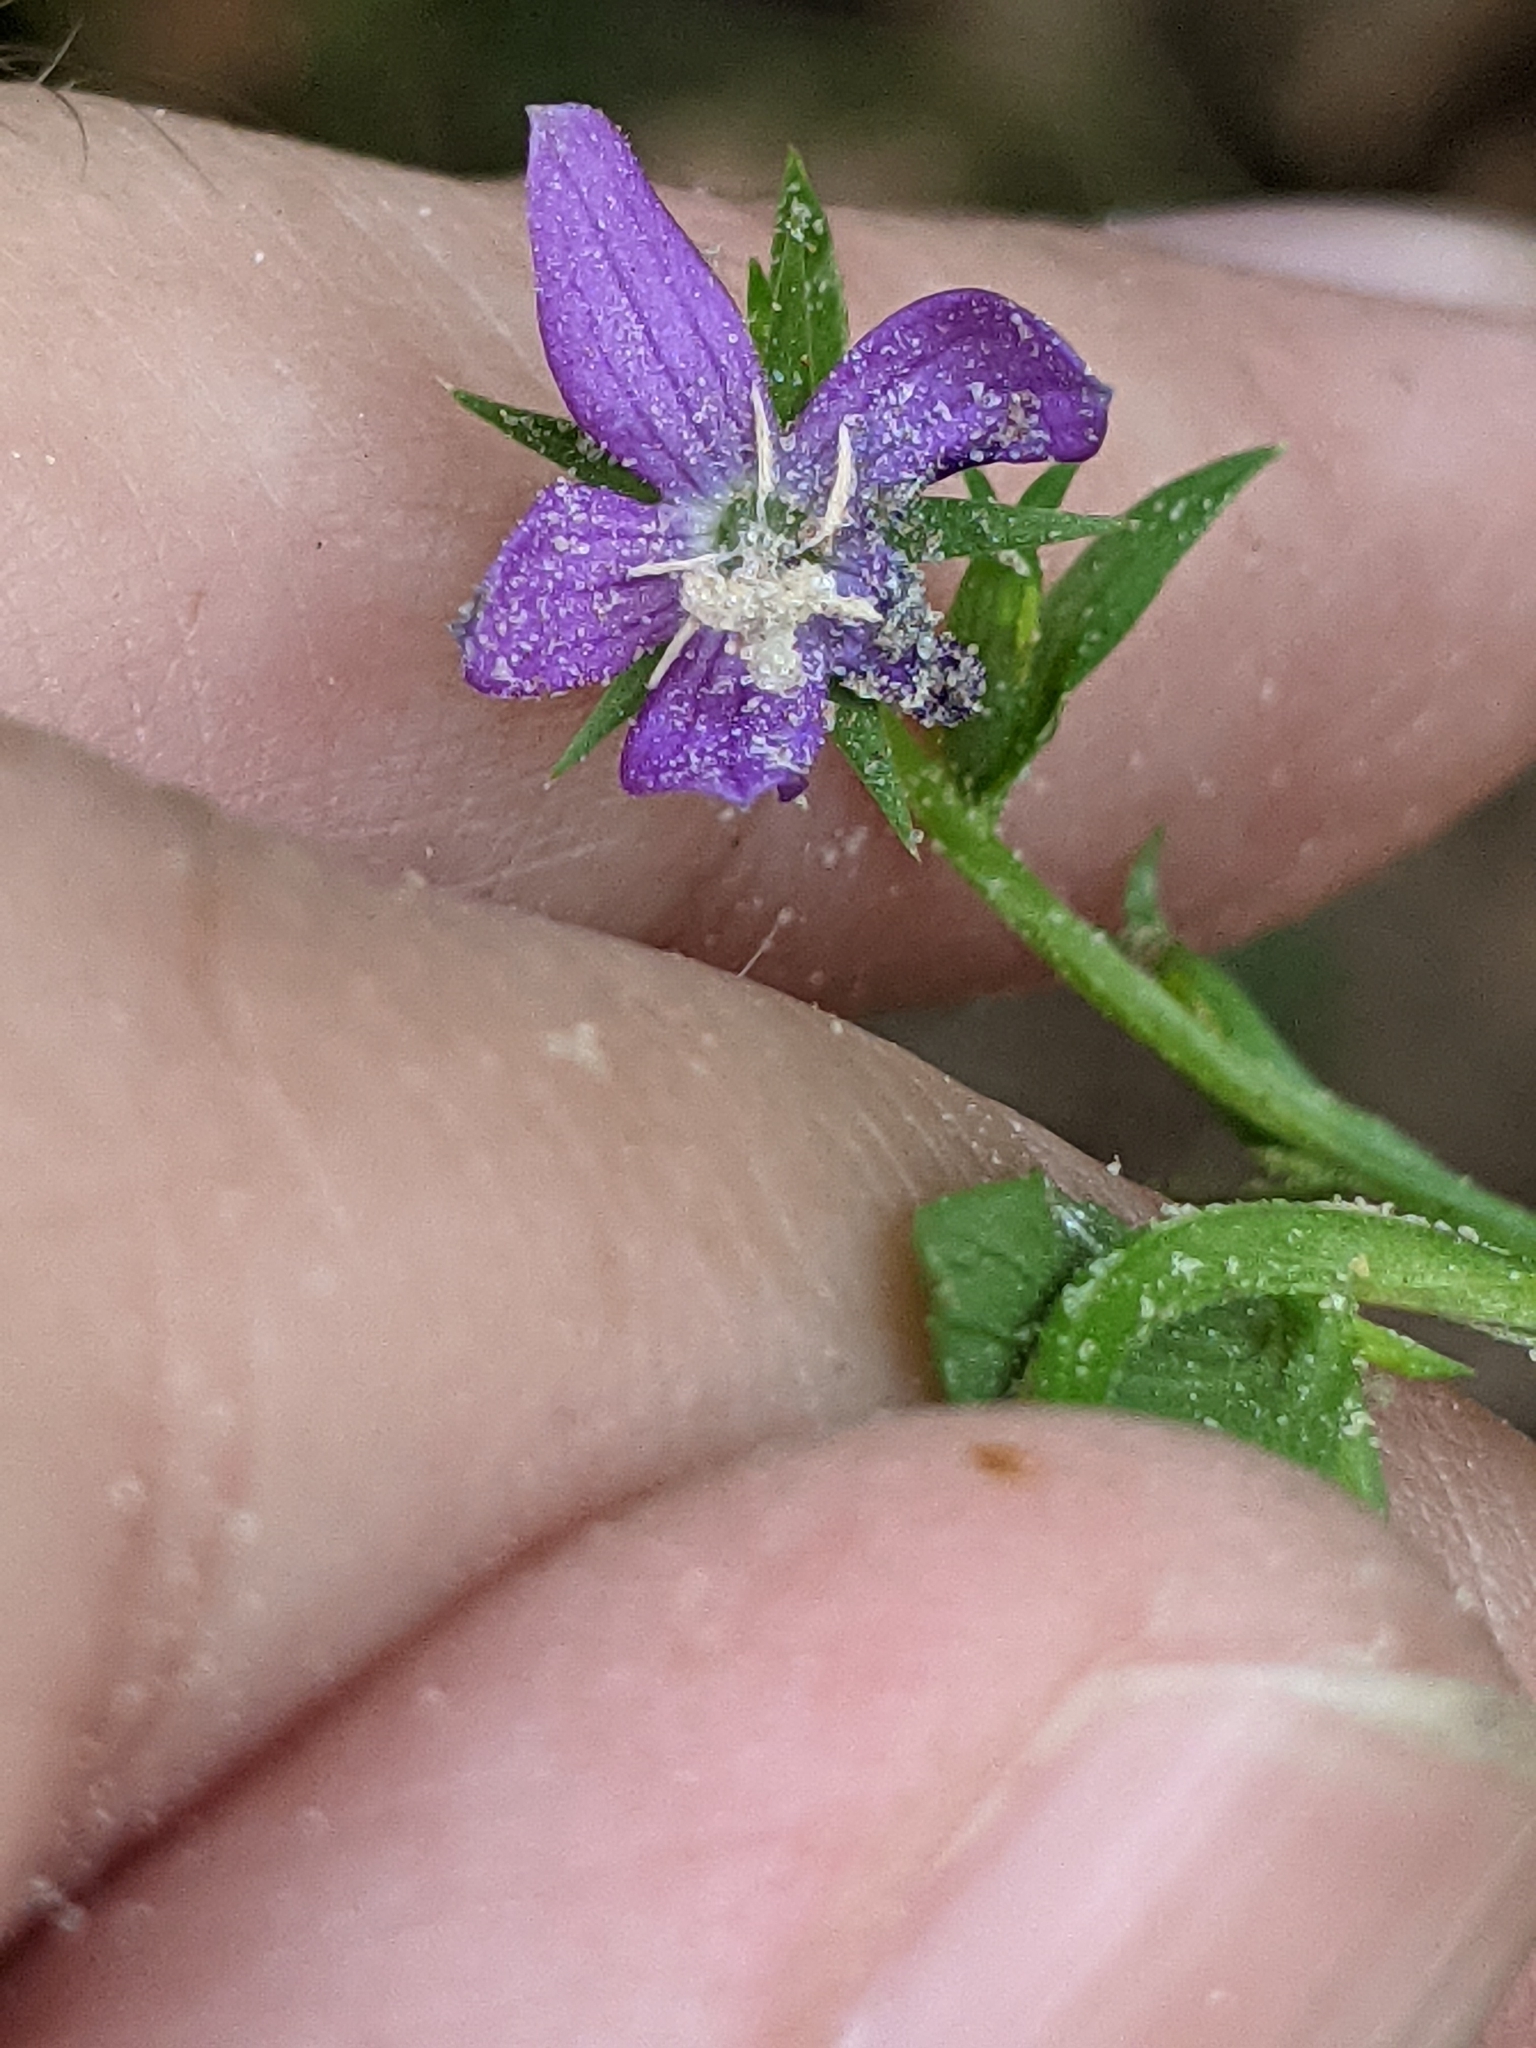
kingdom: Plantae
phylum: Tracheophyta
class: Magnoliopsida
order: Asterales
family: Campanulaceae
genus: Triodanis
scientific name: Triodanis biflora
